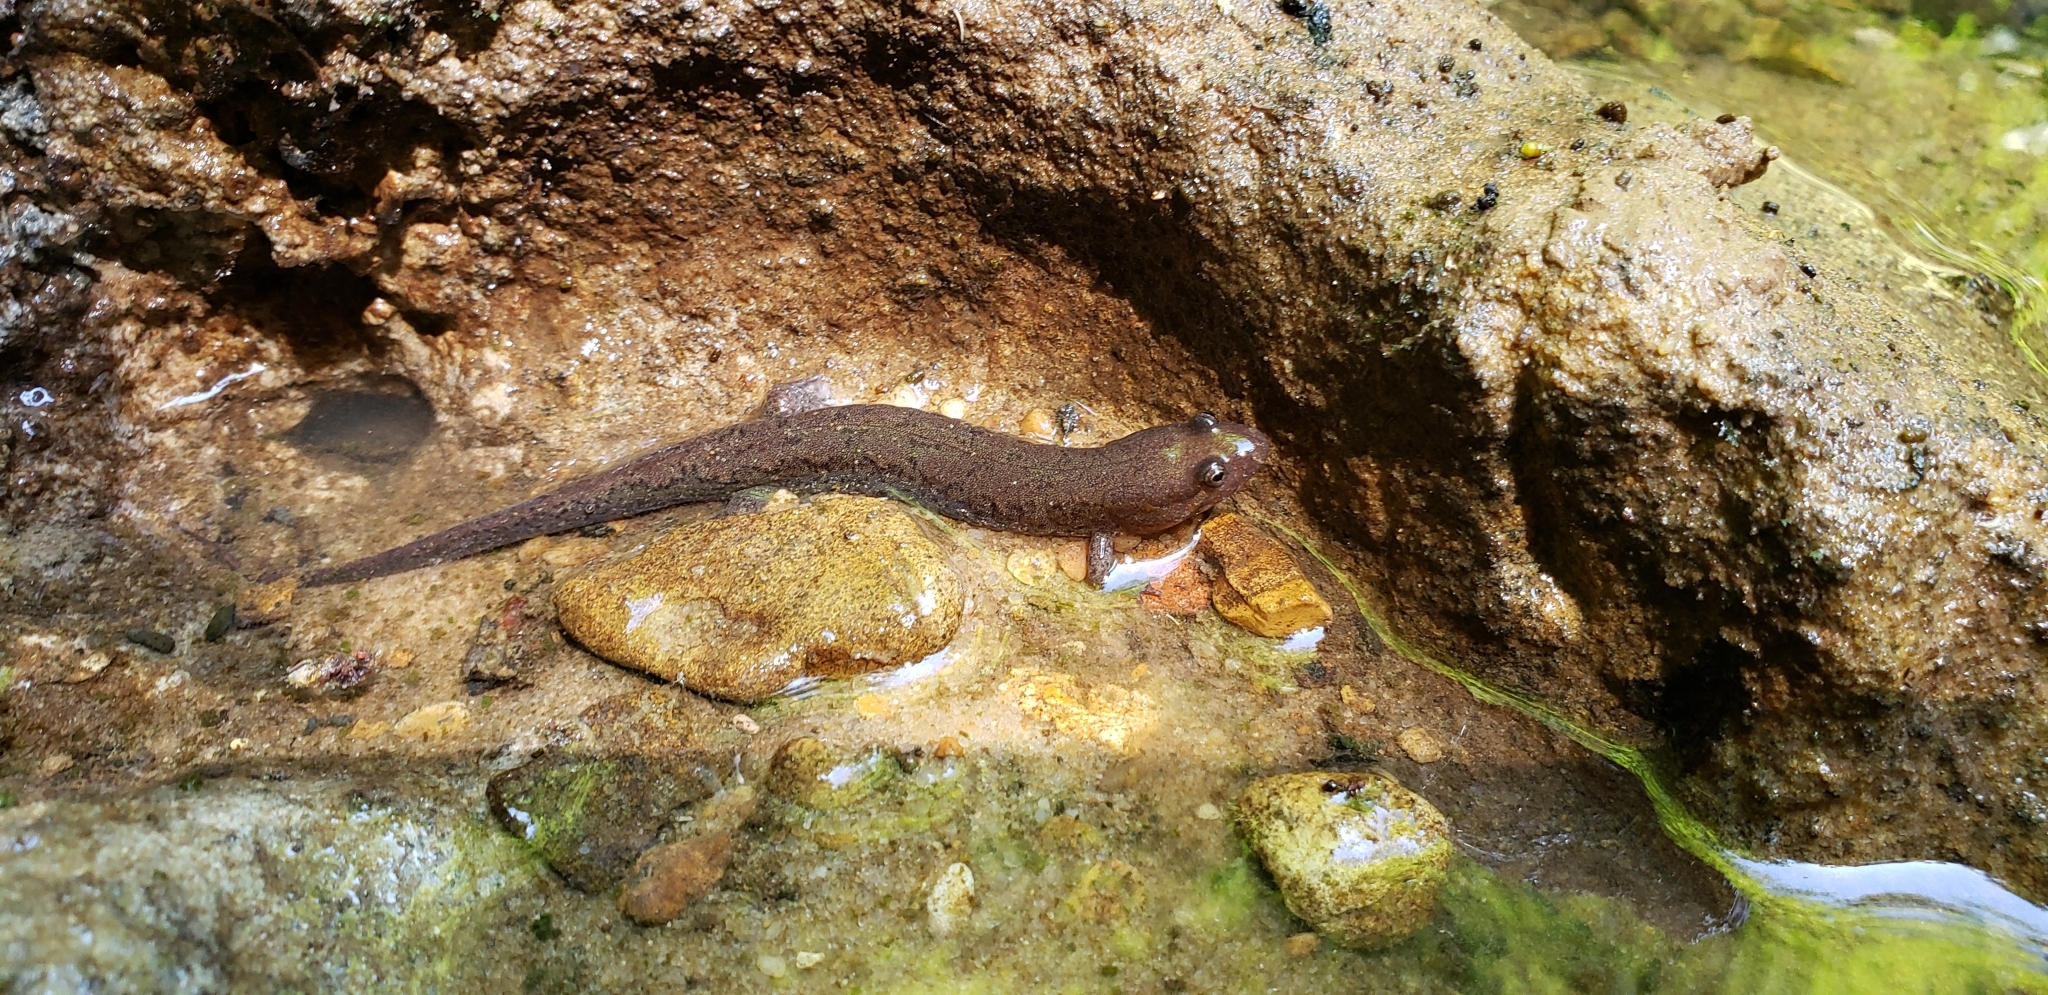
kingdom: Animalia
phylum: Chordata
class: Amphibia
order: Caudata
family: Plethodontidae
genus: Desmognathus
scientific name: Desmognathus conanti
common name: Spotted dusky salamander
